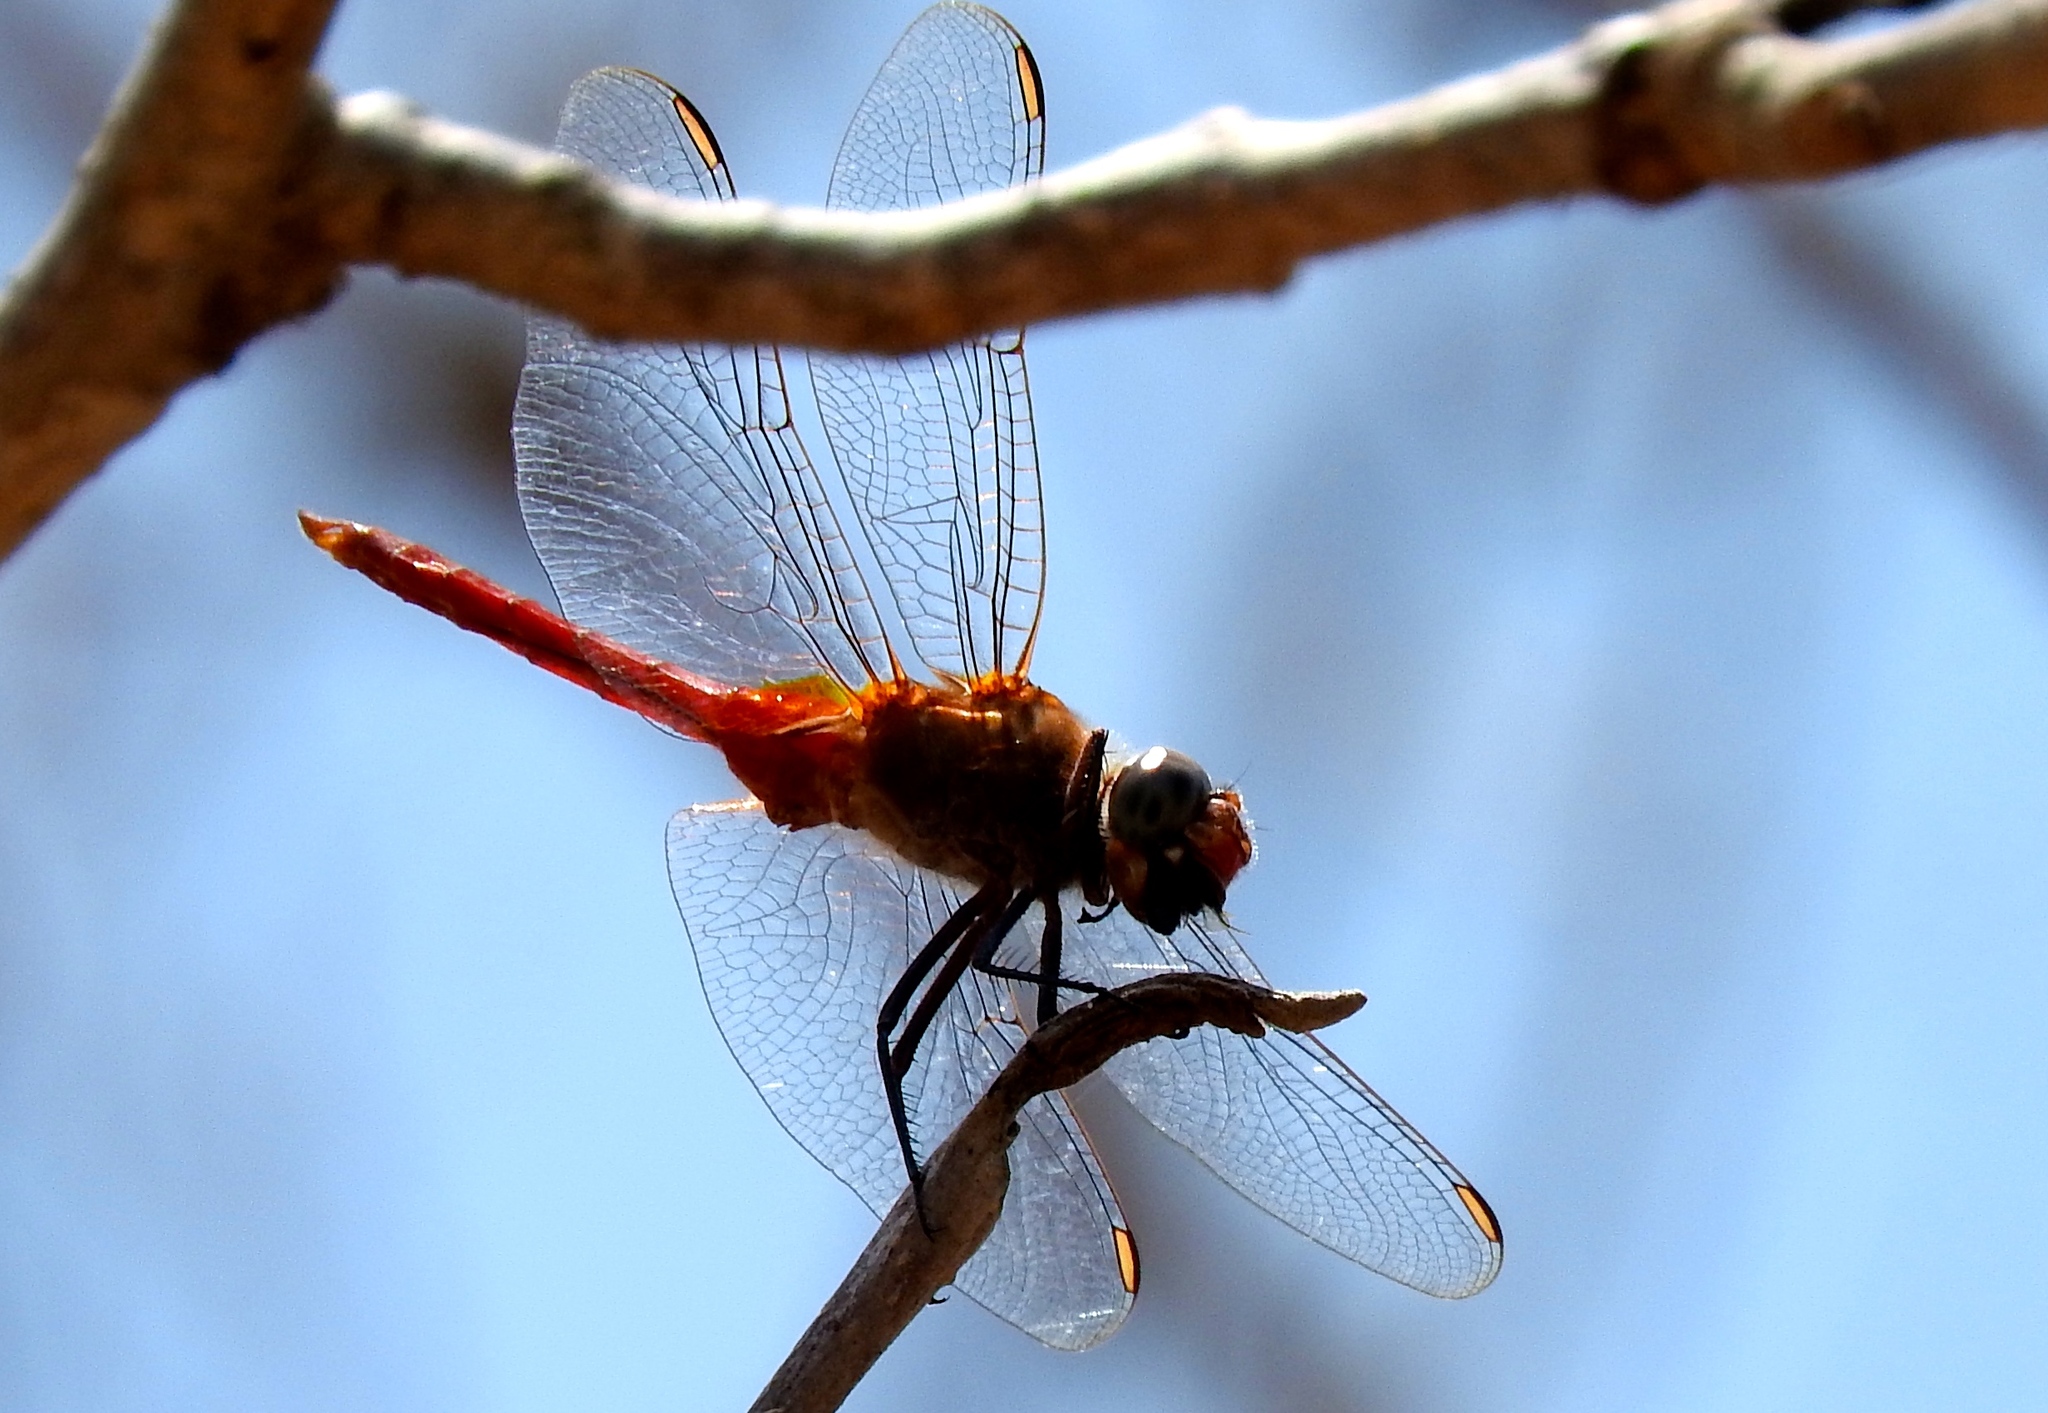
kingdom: Animalia
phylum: Arthropoda
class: Insecta
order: Odonata
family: Libellulidae
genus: Brachymesia
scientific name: Brachymesia furcata
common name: Red-taled pennant
